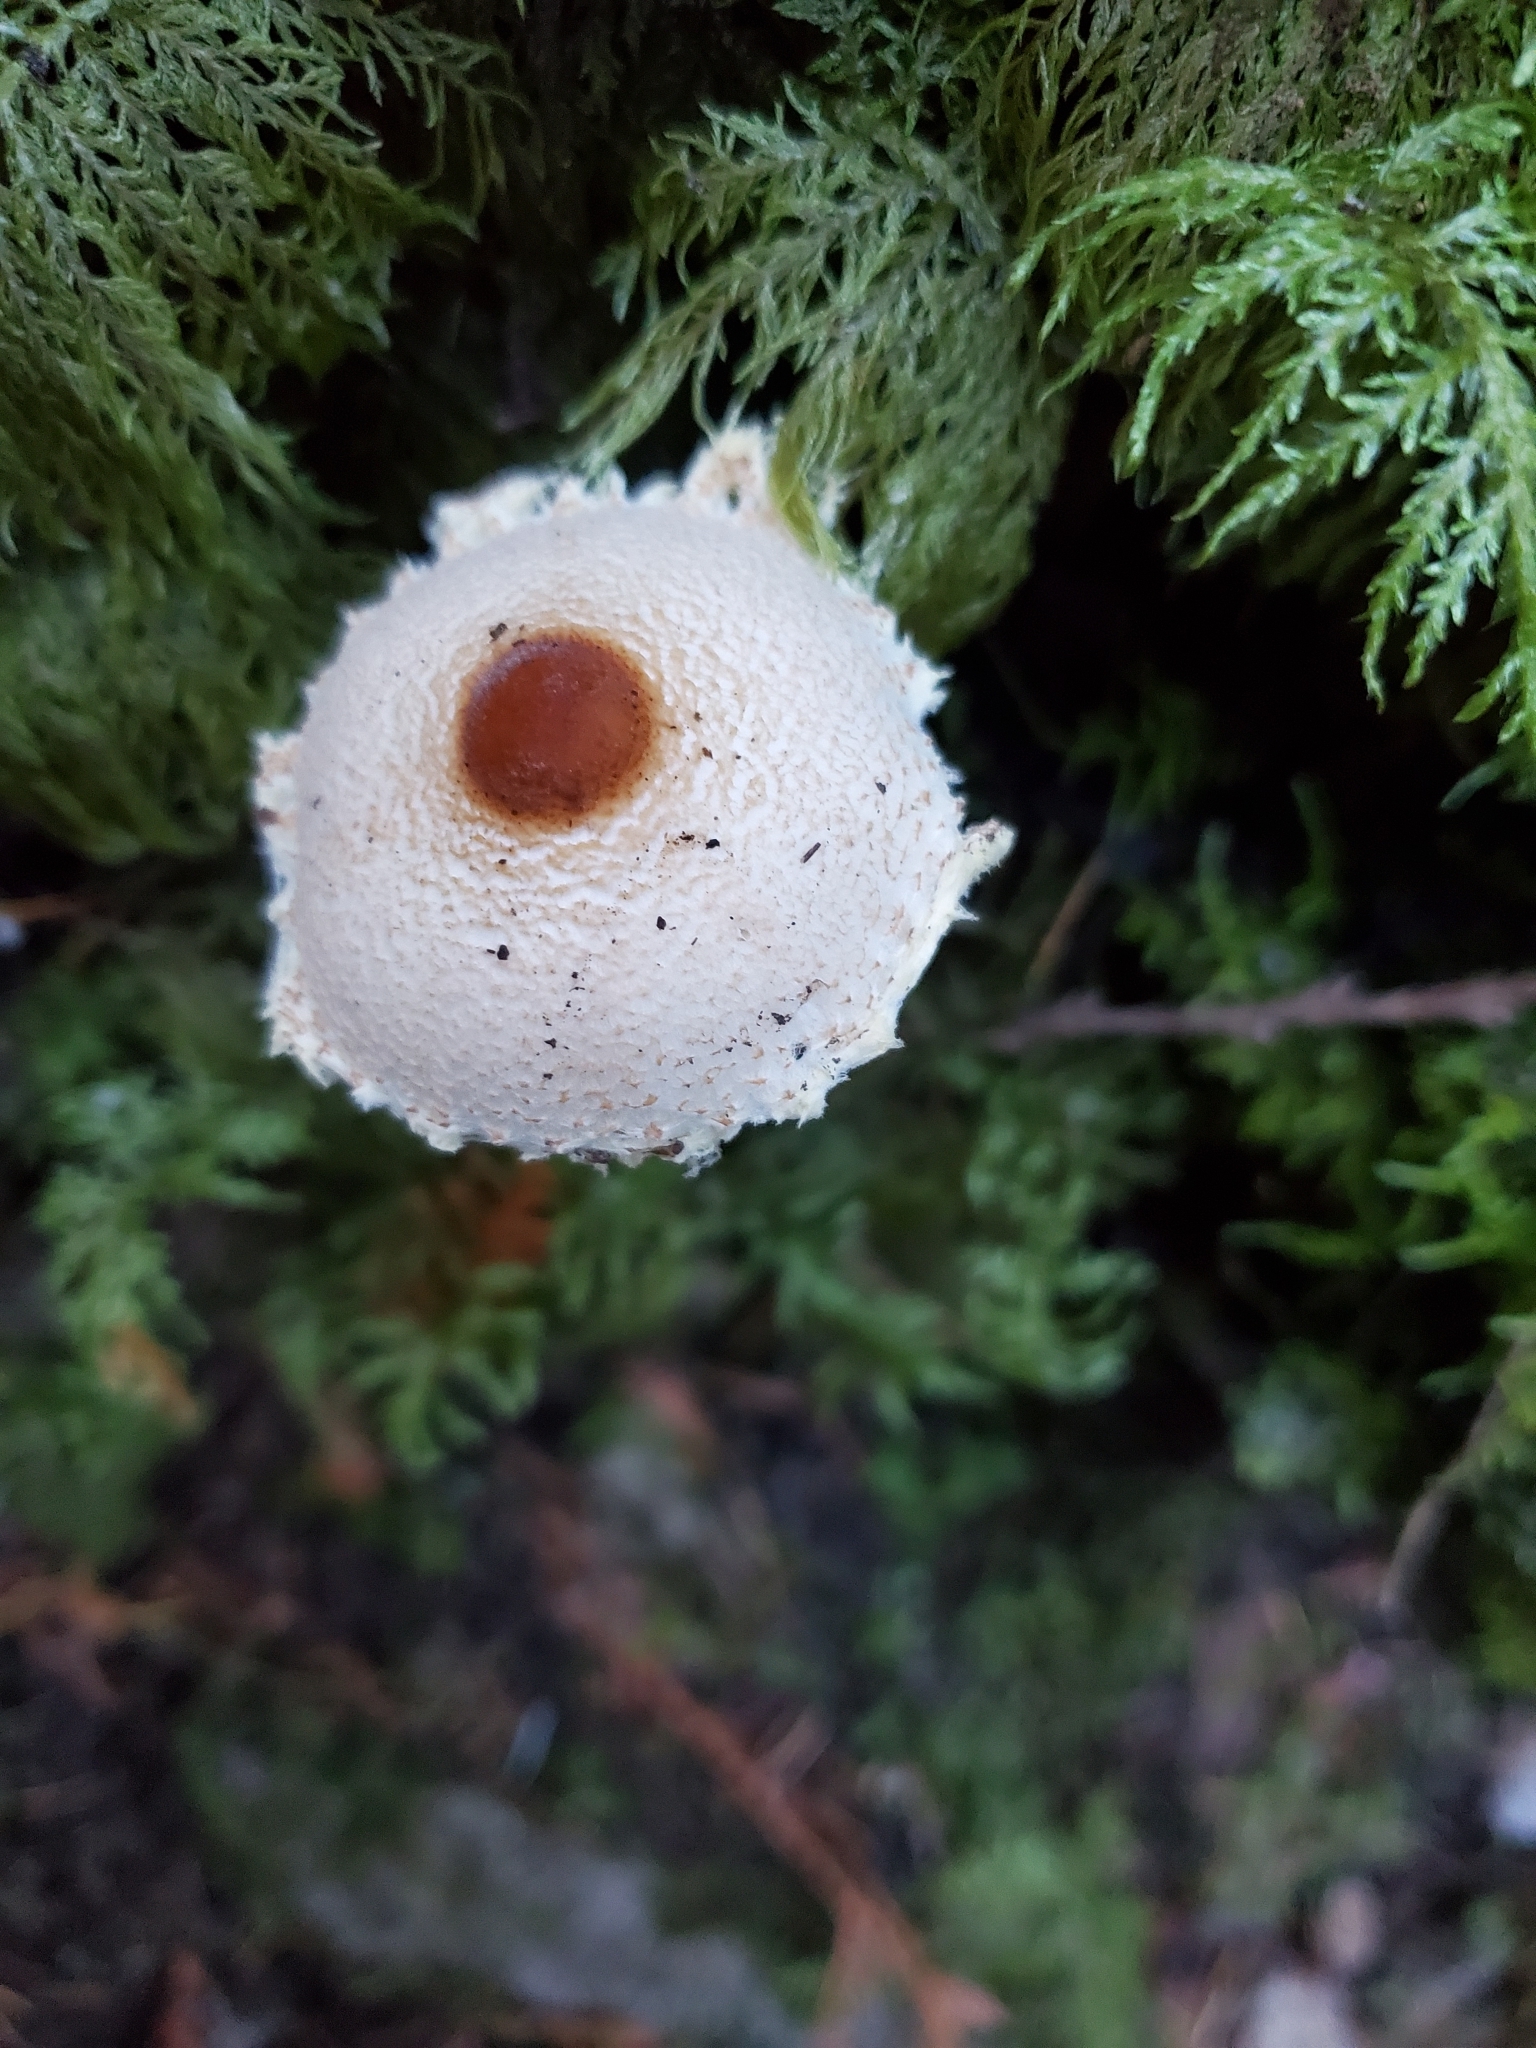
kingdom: Fungi
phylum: Basidiomycota
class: Agaricomycetes
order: Agaricales
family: Agaricaceae
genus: Lepiota
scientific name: Lepiota magnispora
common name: Yellowfoot dapperling
